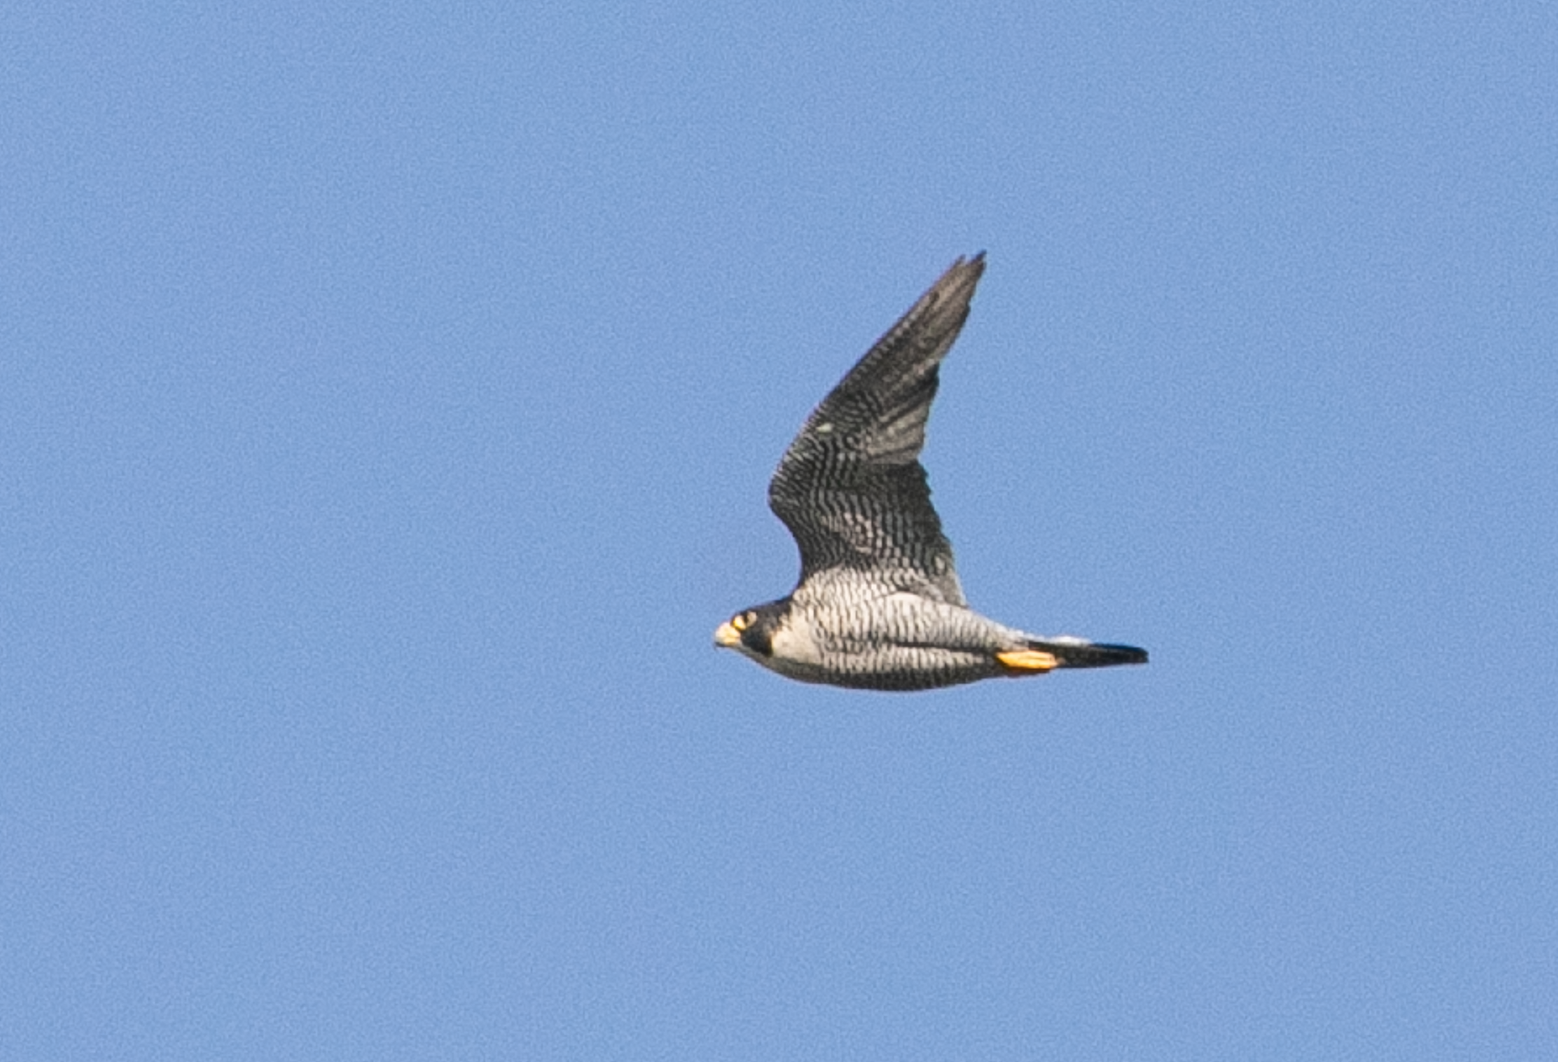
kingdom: Animalia
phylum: Chordata
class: Aves
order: Falconiformes
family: Falconidae
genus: Falco
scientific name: Falco peregrinus
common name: Peregrine falcon
